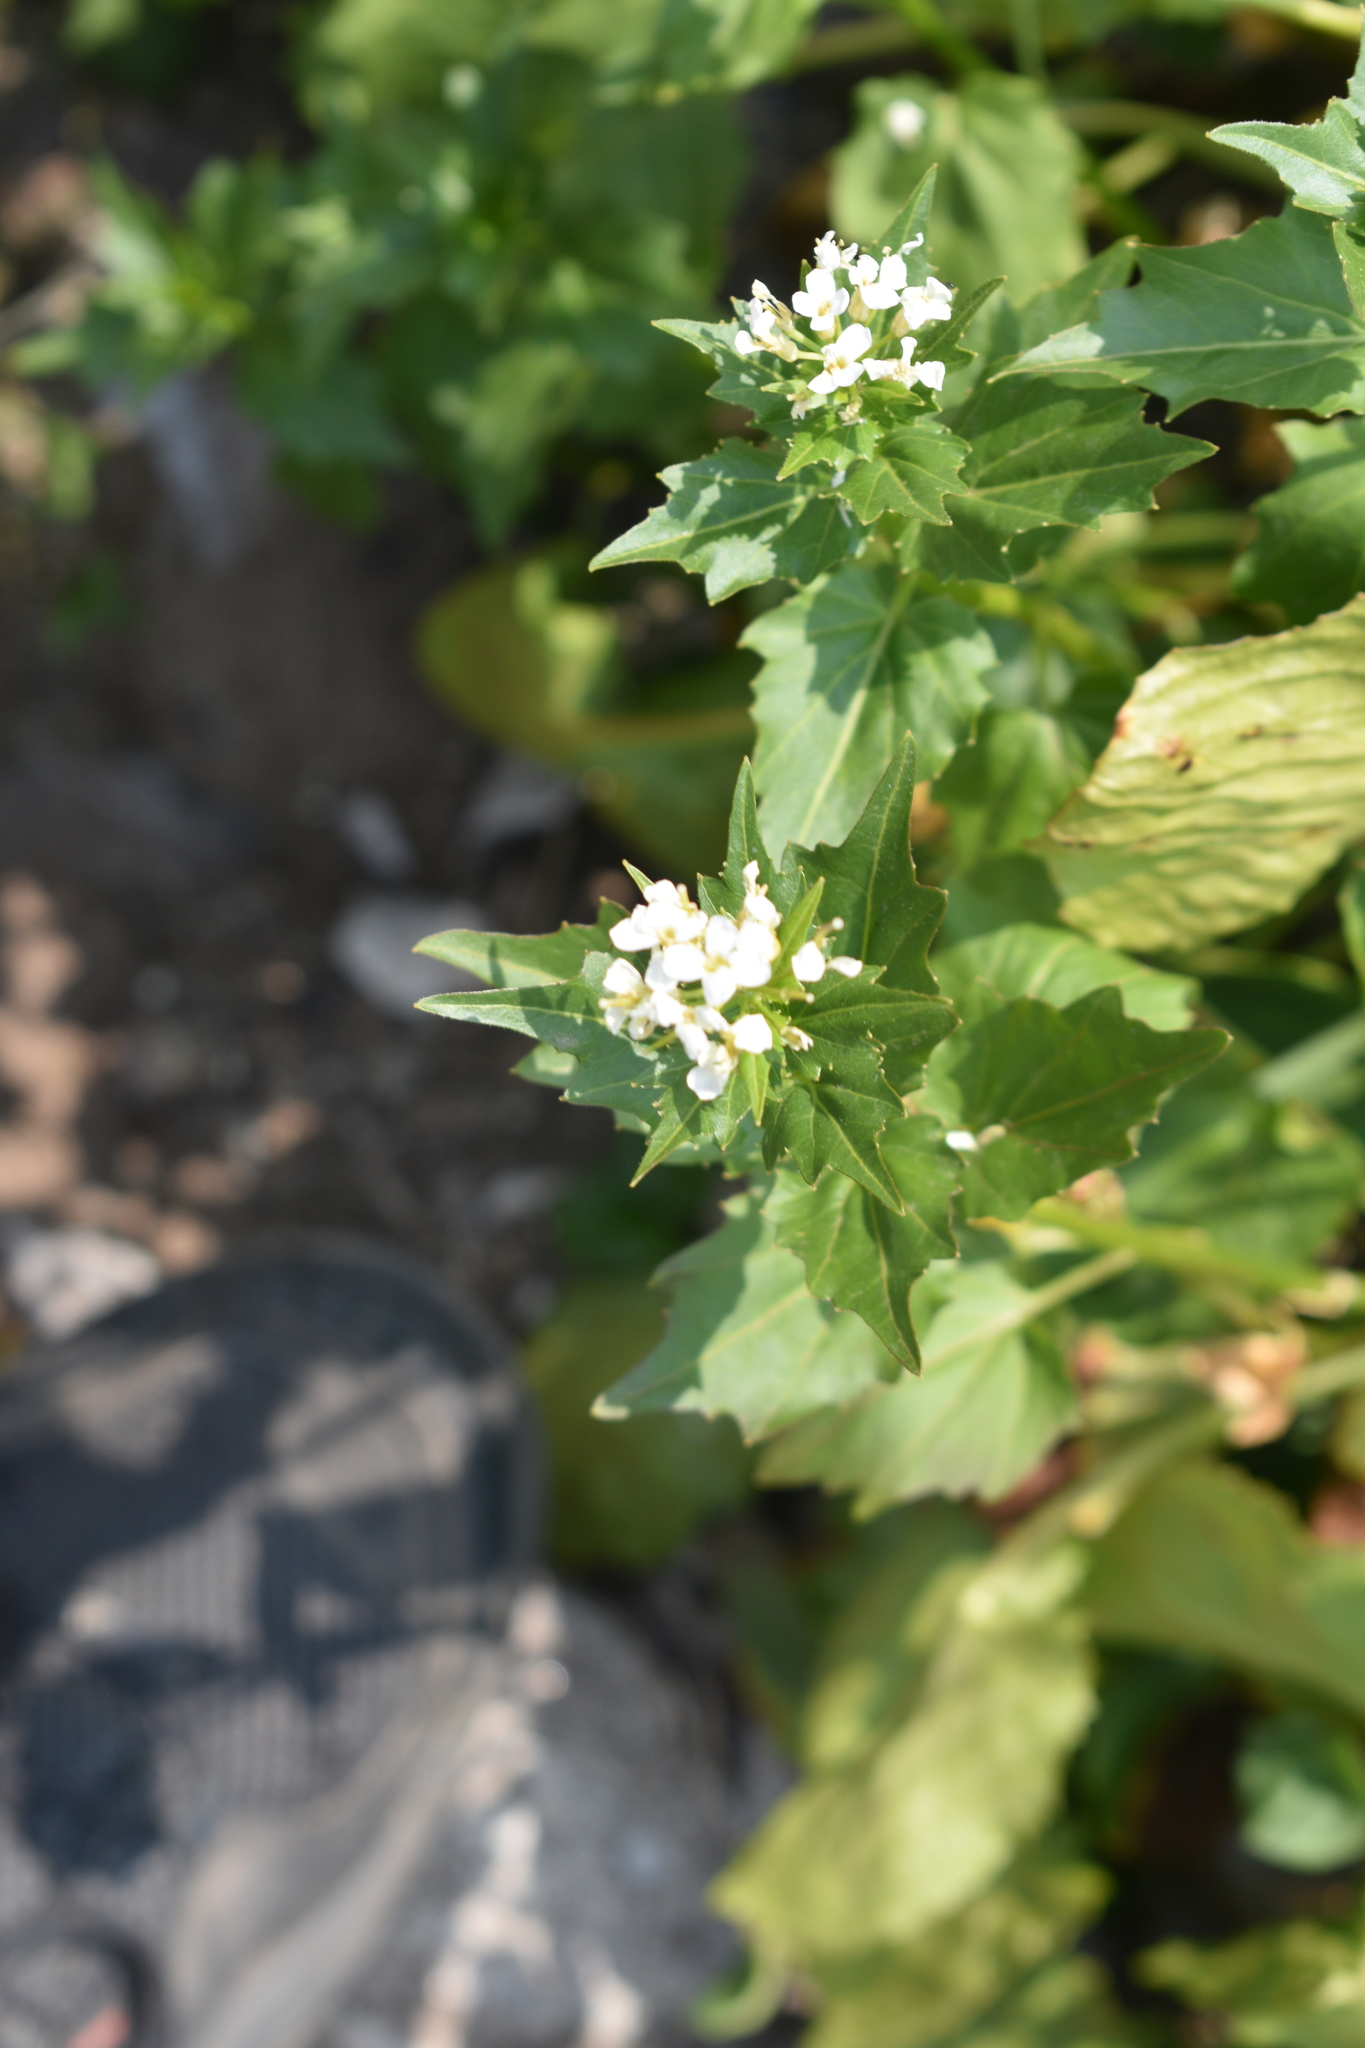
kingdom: Plantae
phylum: Tracheophyta
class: Magnoliopsida
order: Brassicales
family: Brassicaceae
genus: Cardamine
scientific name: Cardamine cordifolia
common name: Heart-leaf bittercress
